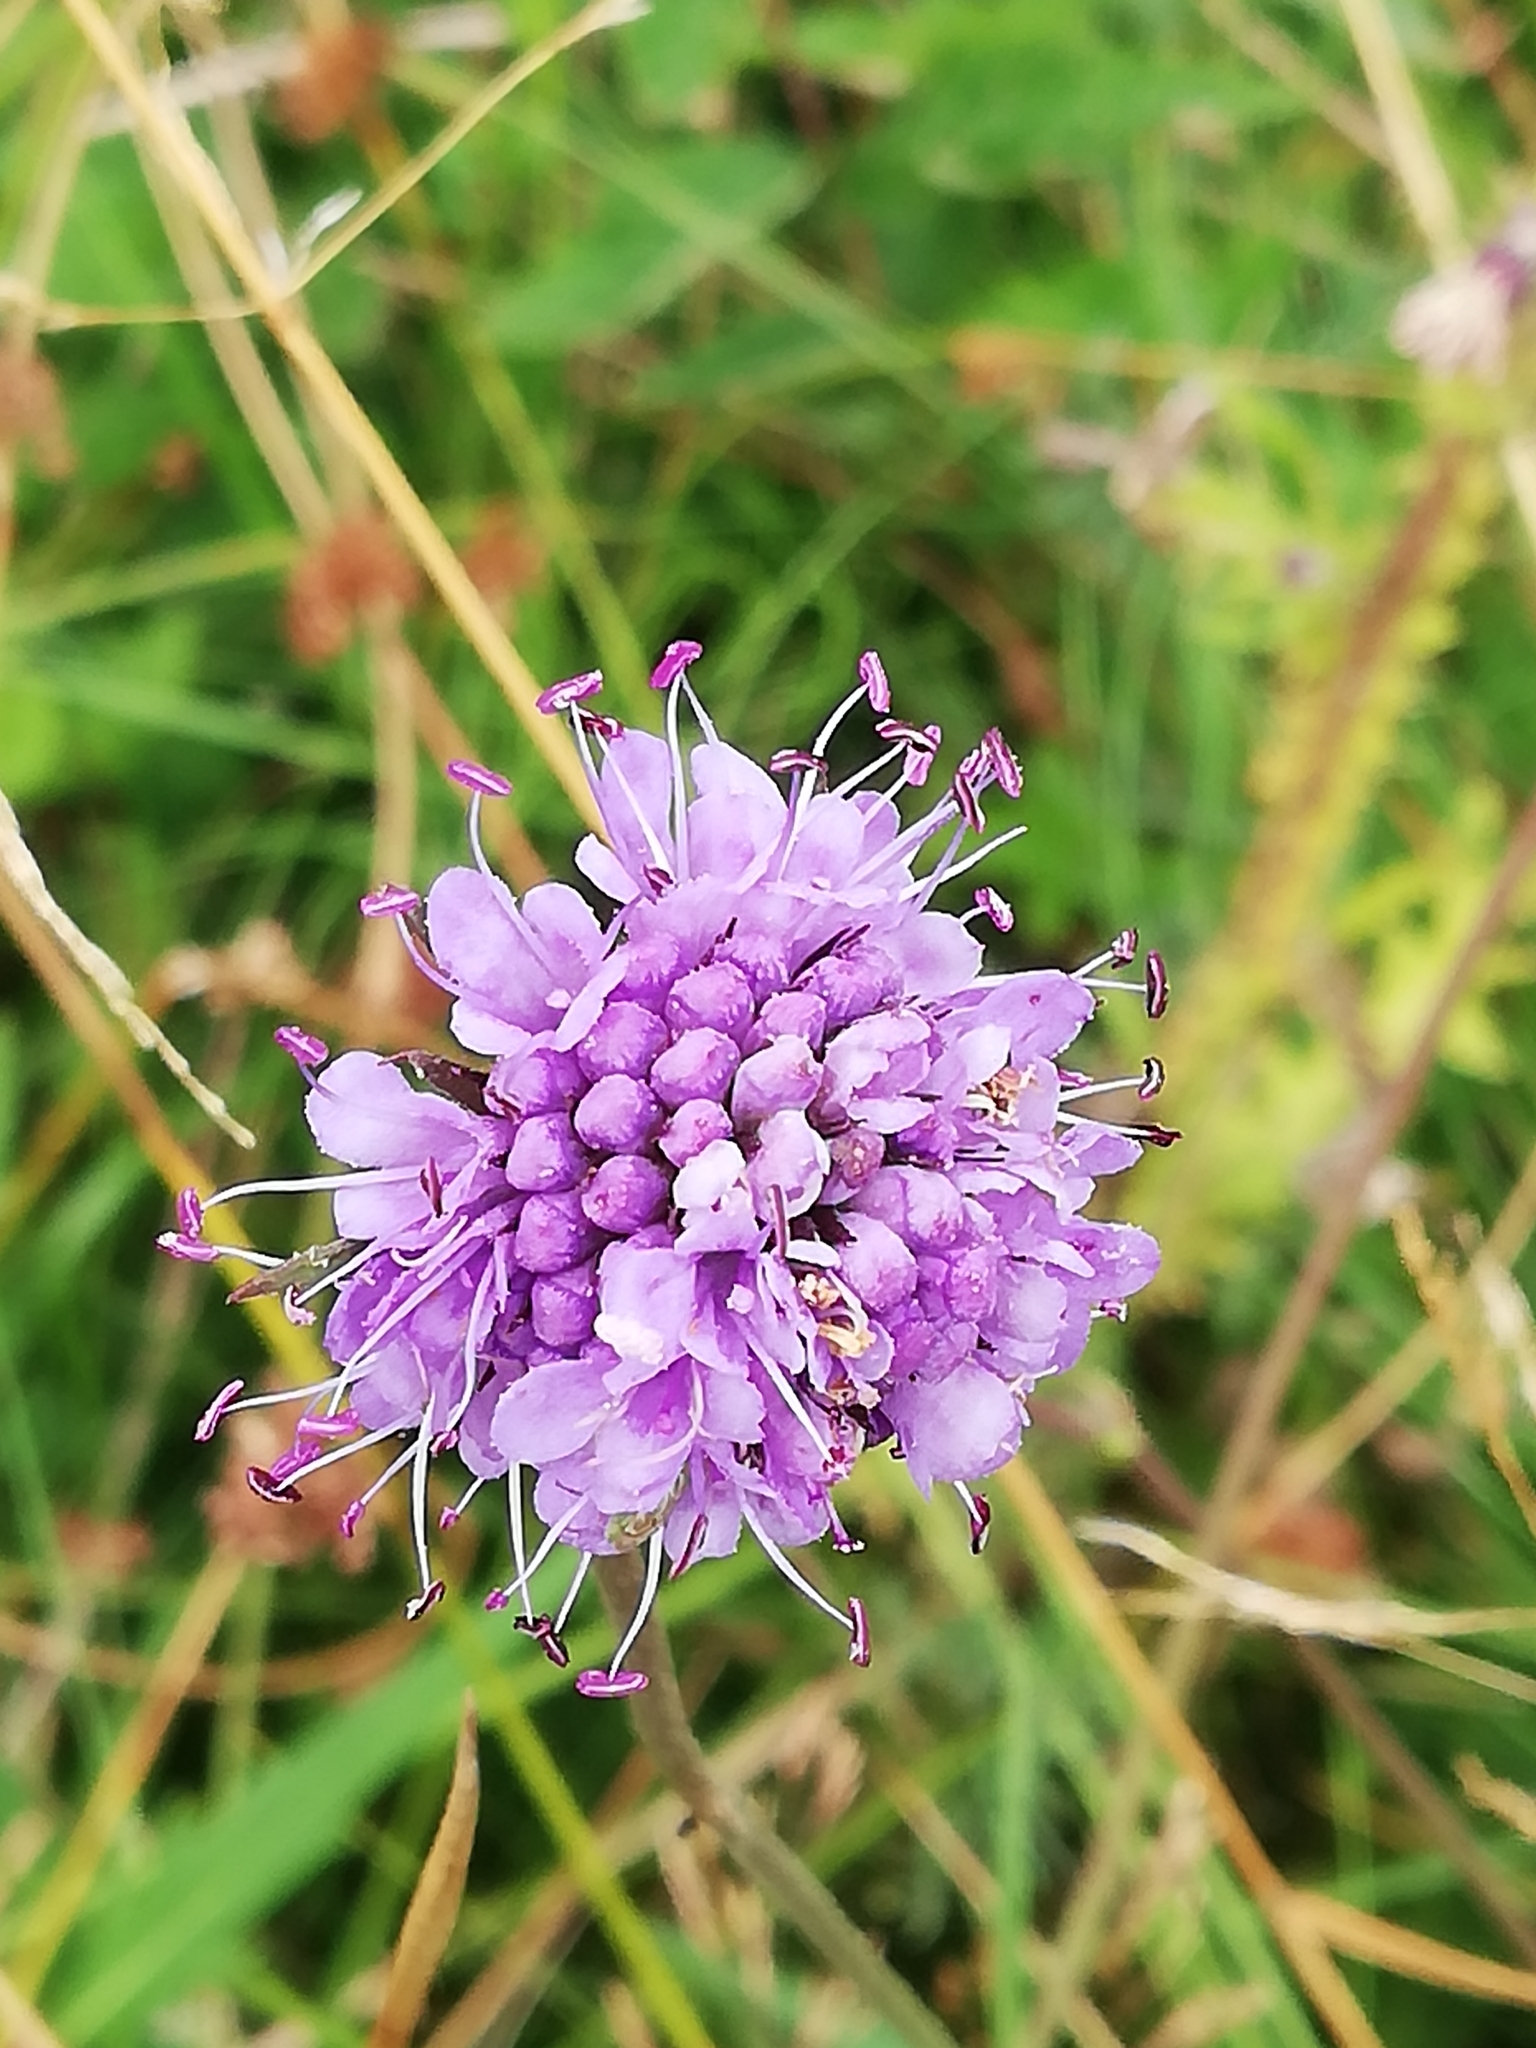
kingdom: Plantae
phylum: Tracheophyta
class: Magnoliopsida
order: Dipsacales
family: Caprifoliaceae
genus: Succisa
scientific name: Succisa pratensis
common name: Devil's-bit
